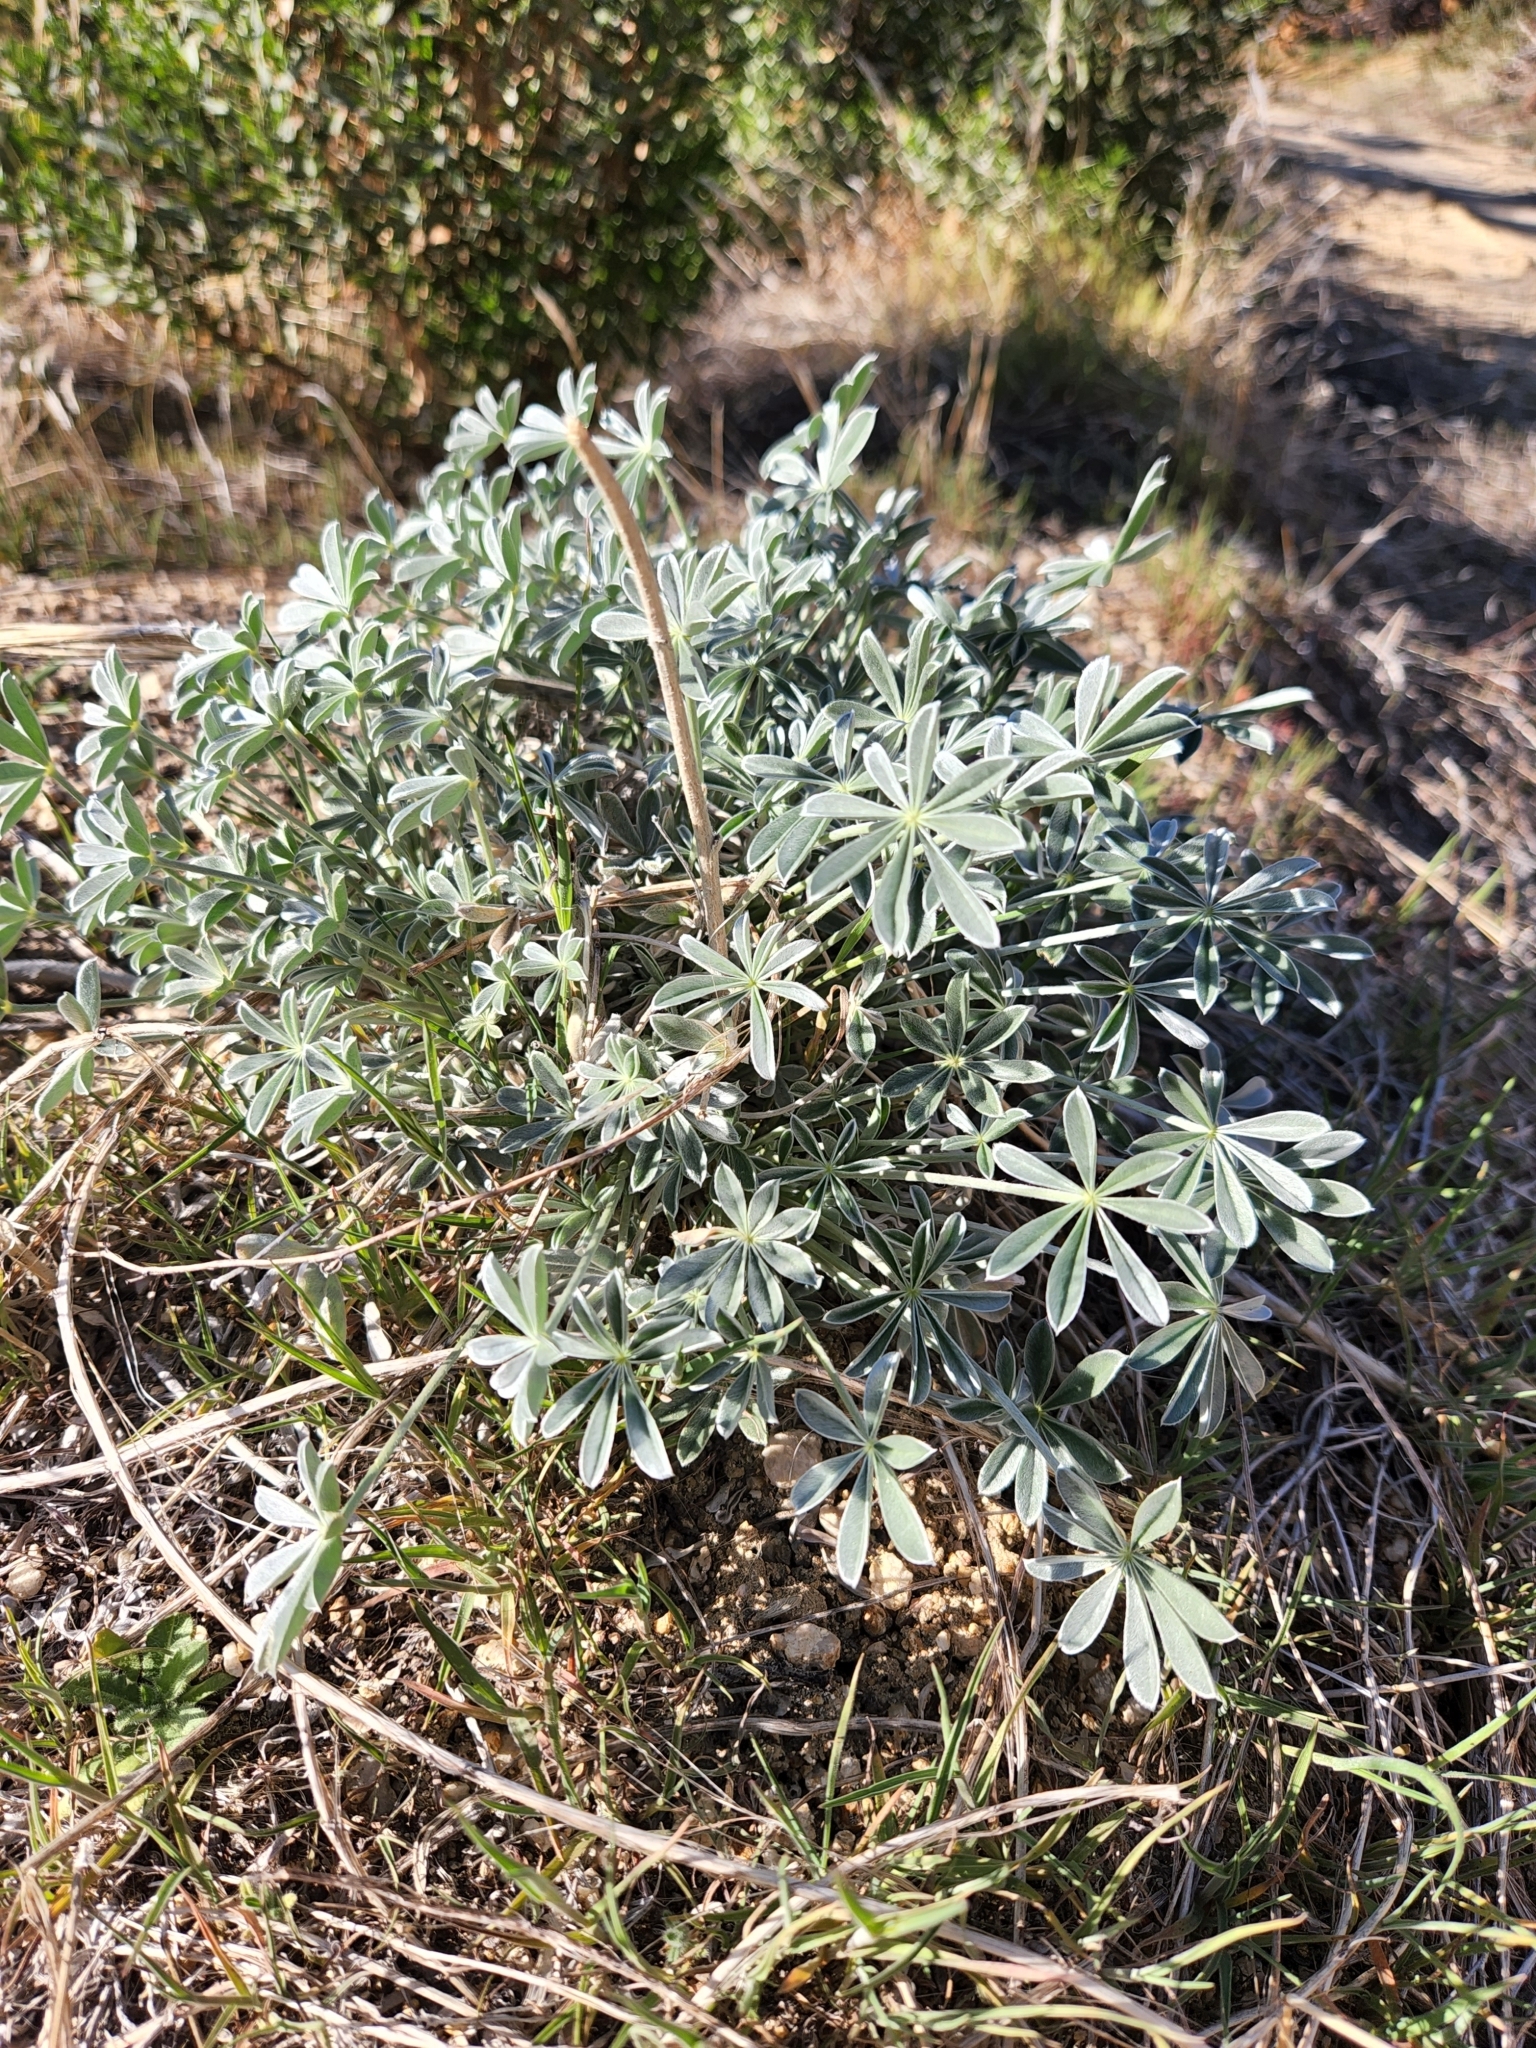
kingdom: Plantae
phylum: Tracheophyta
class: Magnoliopsida
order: Fabales
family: Fabaceae
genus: Lupinus
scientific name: Lupinus excubitus
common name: Grape soda lupine
